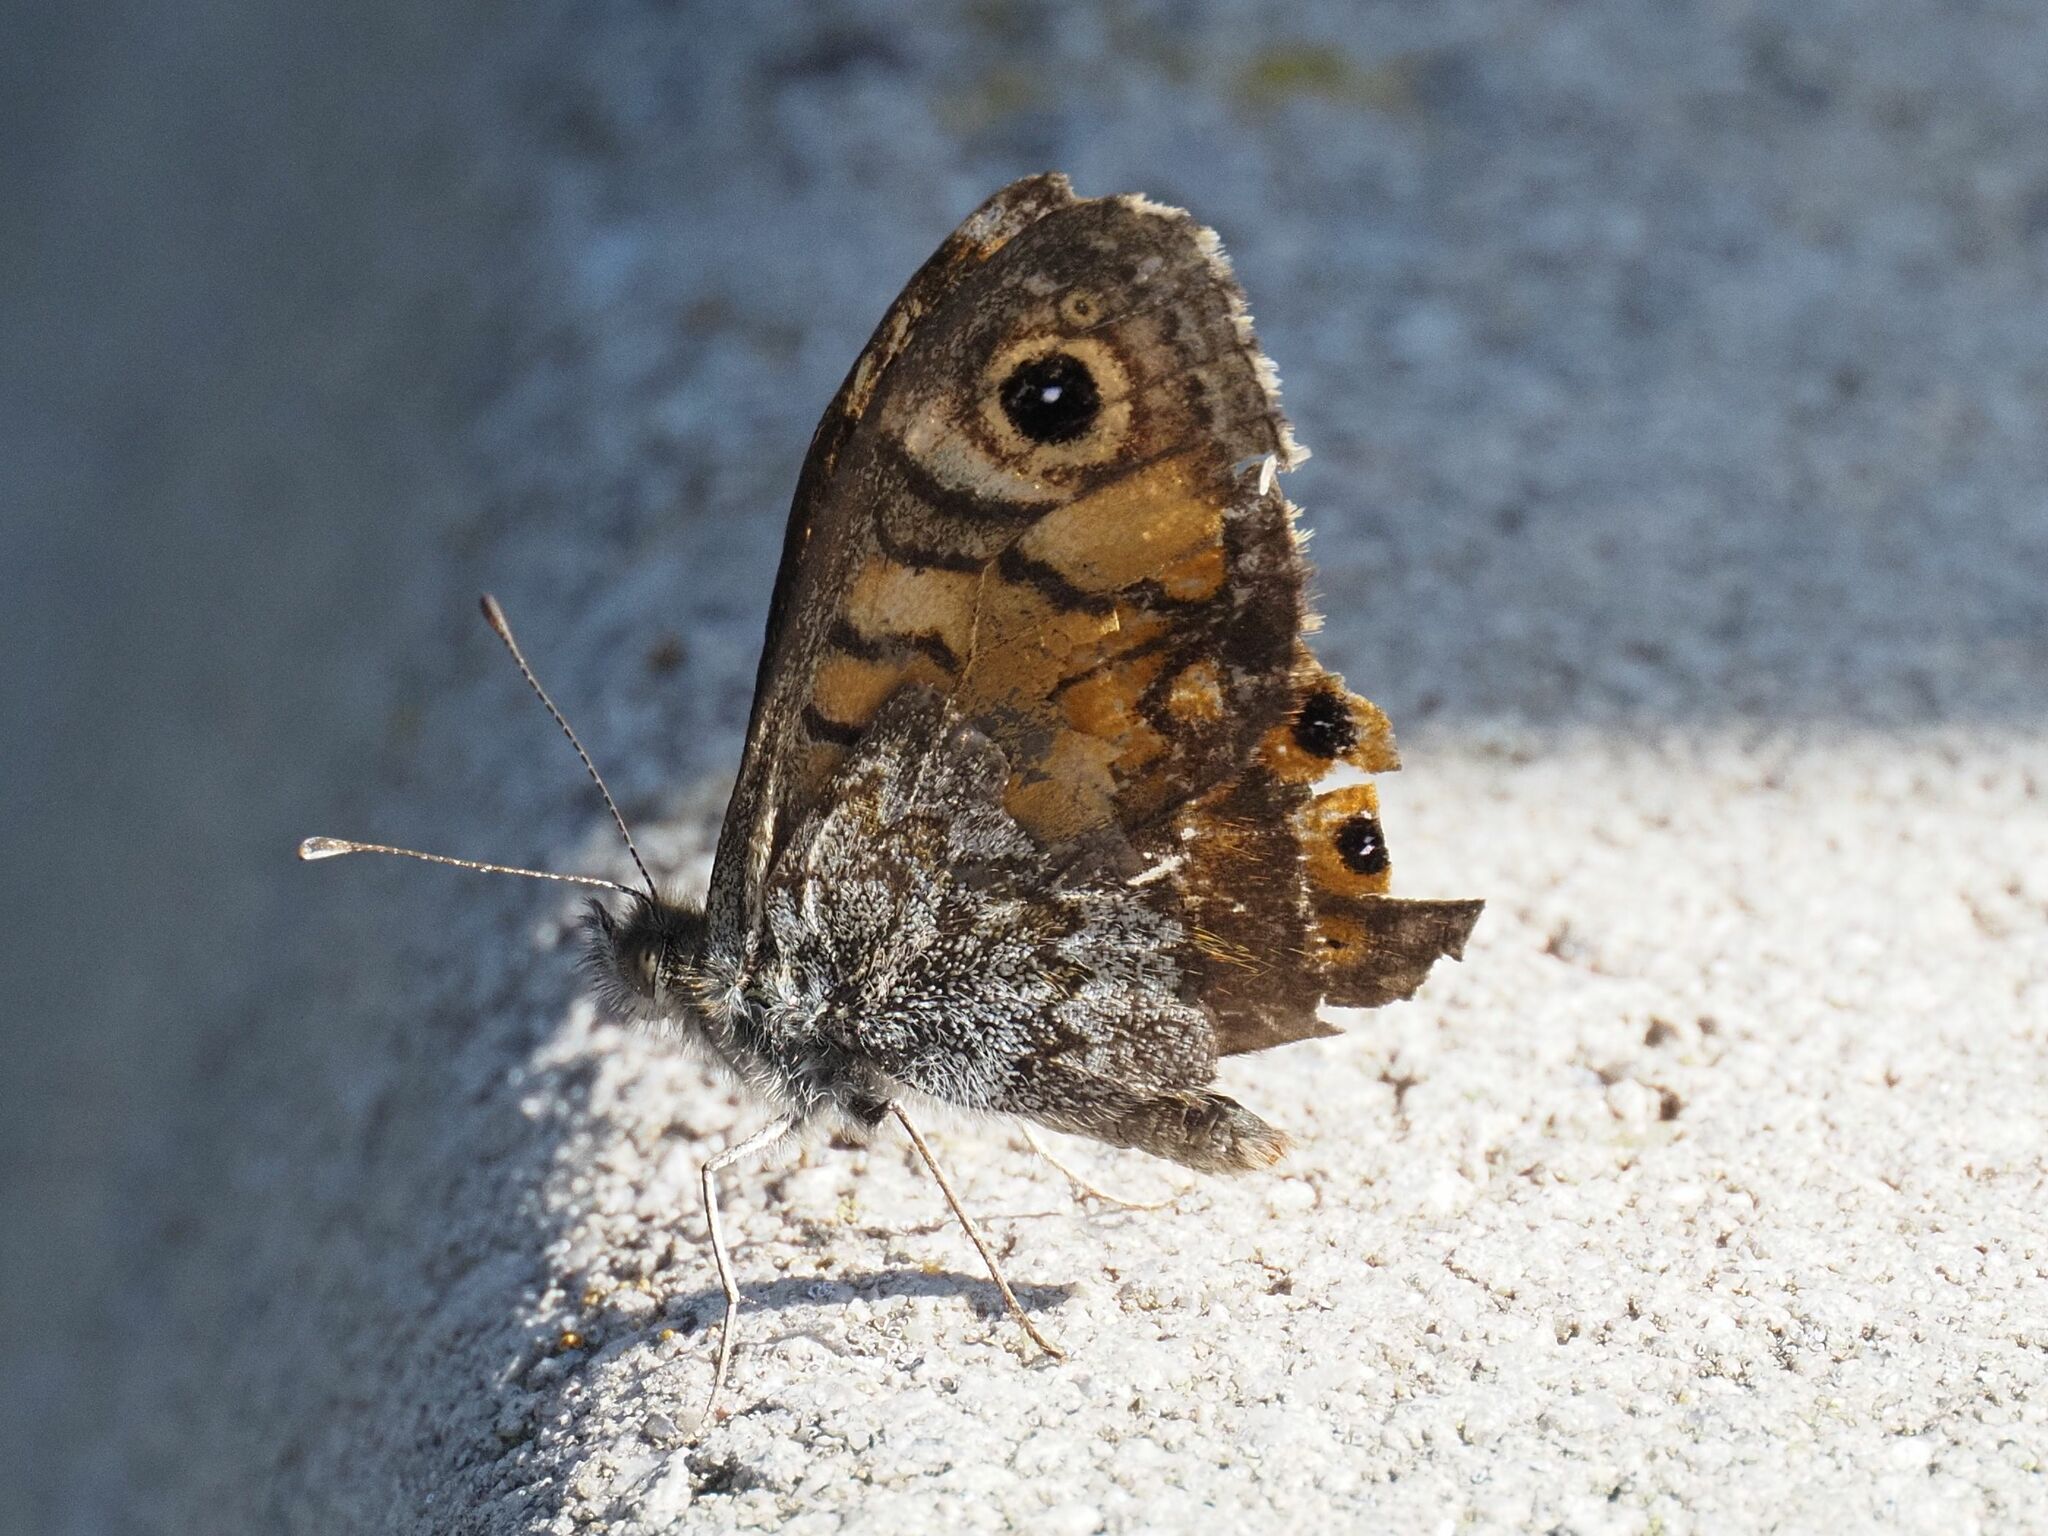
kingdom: Animalia
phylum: Arthropoda
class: Insecta
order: Lepidoptera
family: Nymphalidae
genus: Pararge
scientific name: Pararge Lasiommata megera
